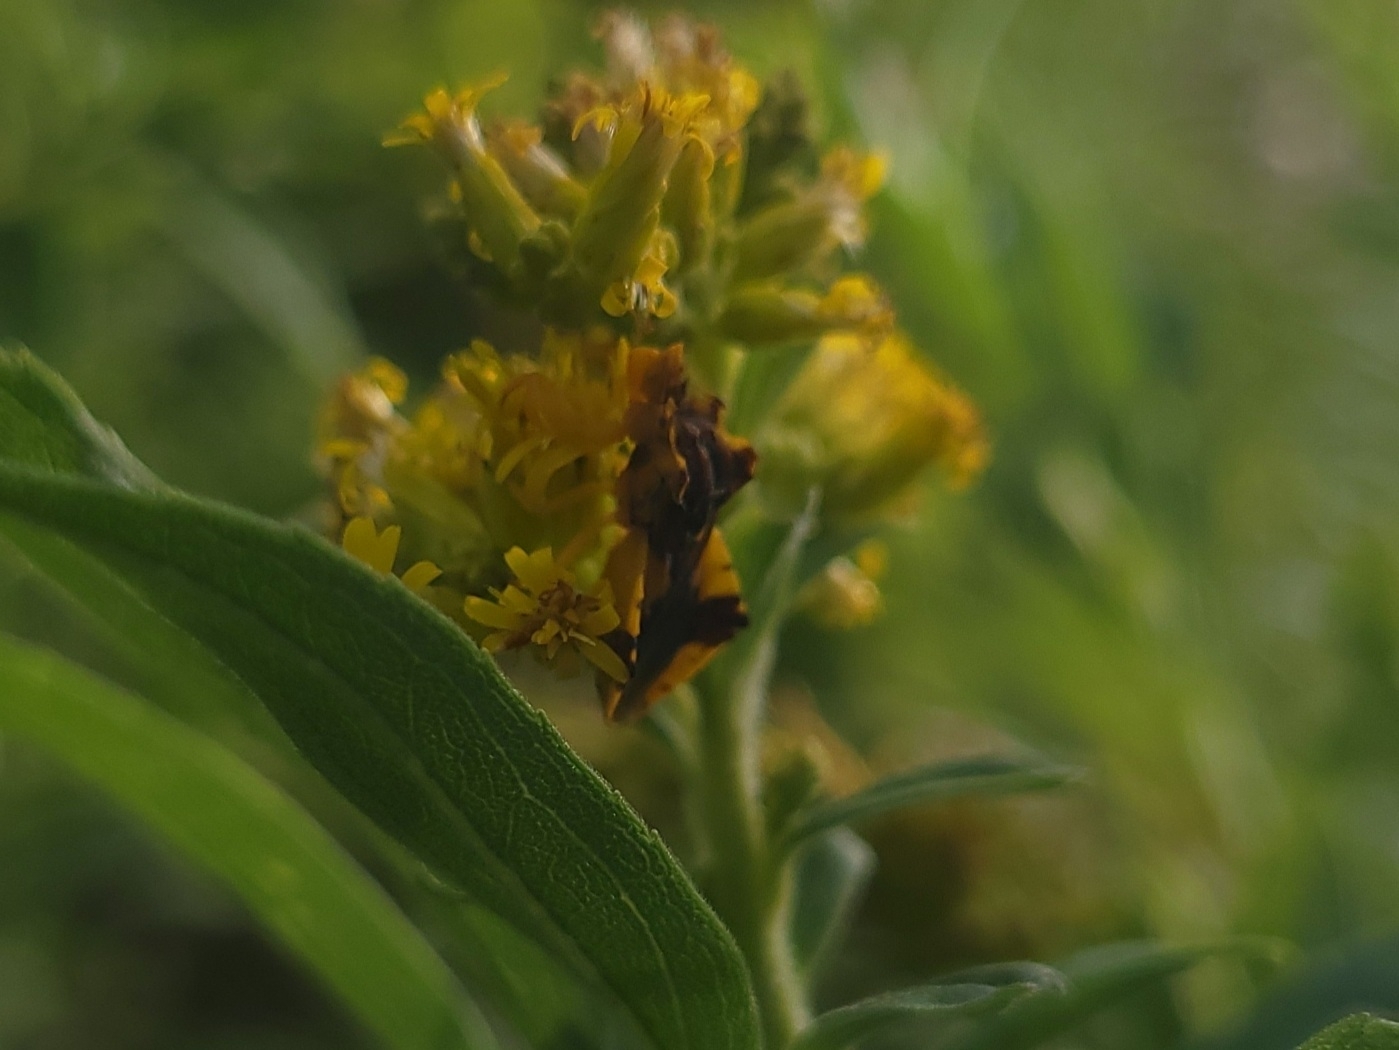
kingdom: Animalia
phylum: Arthropoda
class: Insecta
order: Hemiptera
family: Reduviidae
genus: Phymata
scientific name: Phymata americana
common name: Jagged ambush bug
